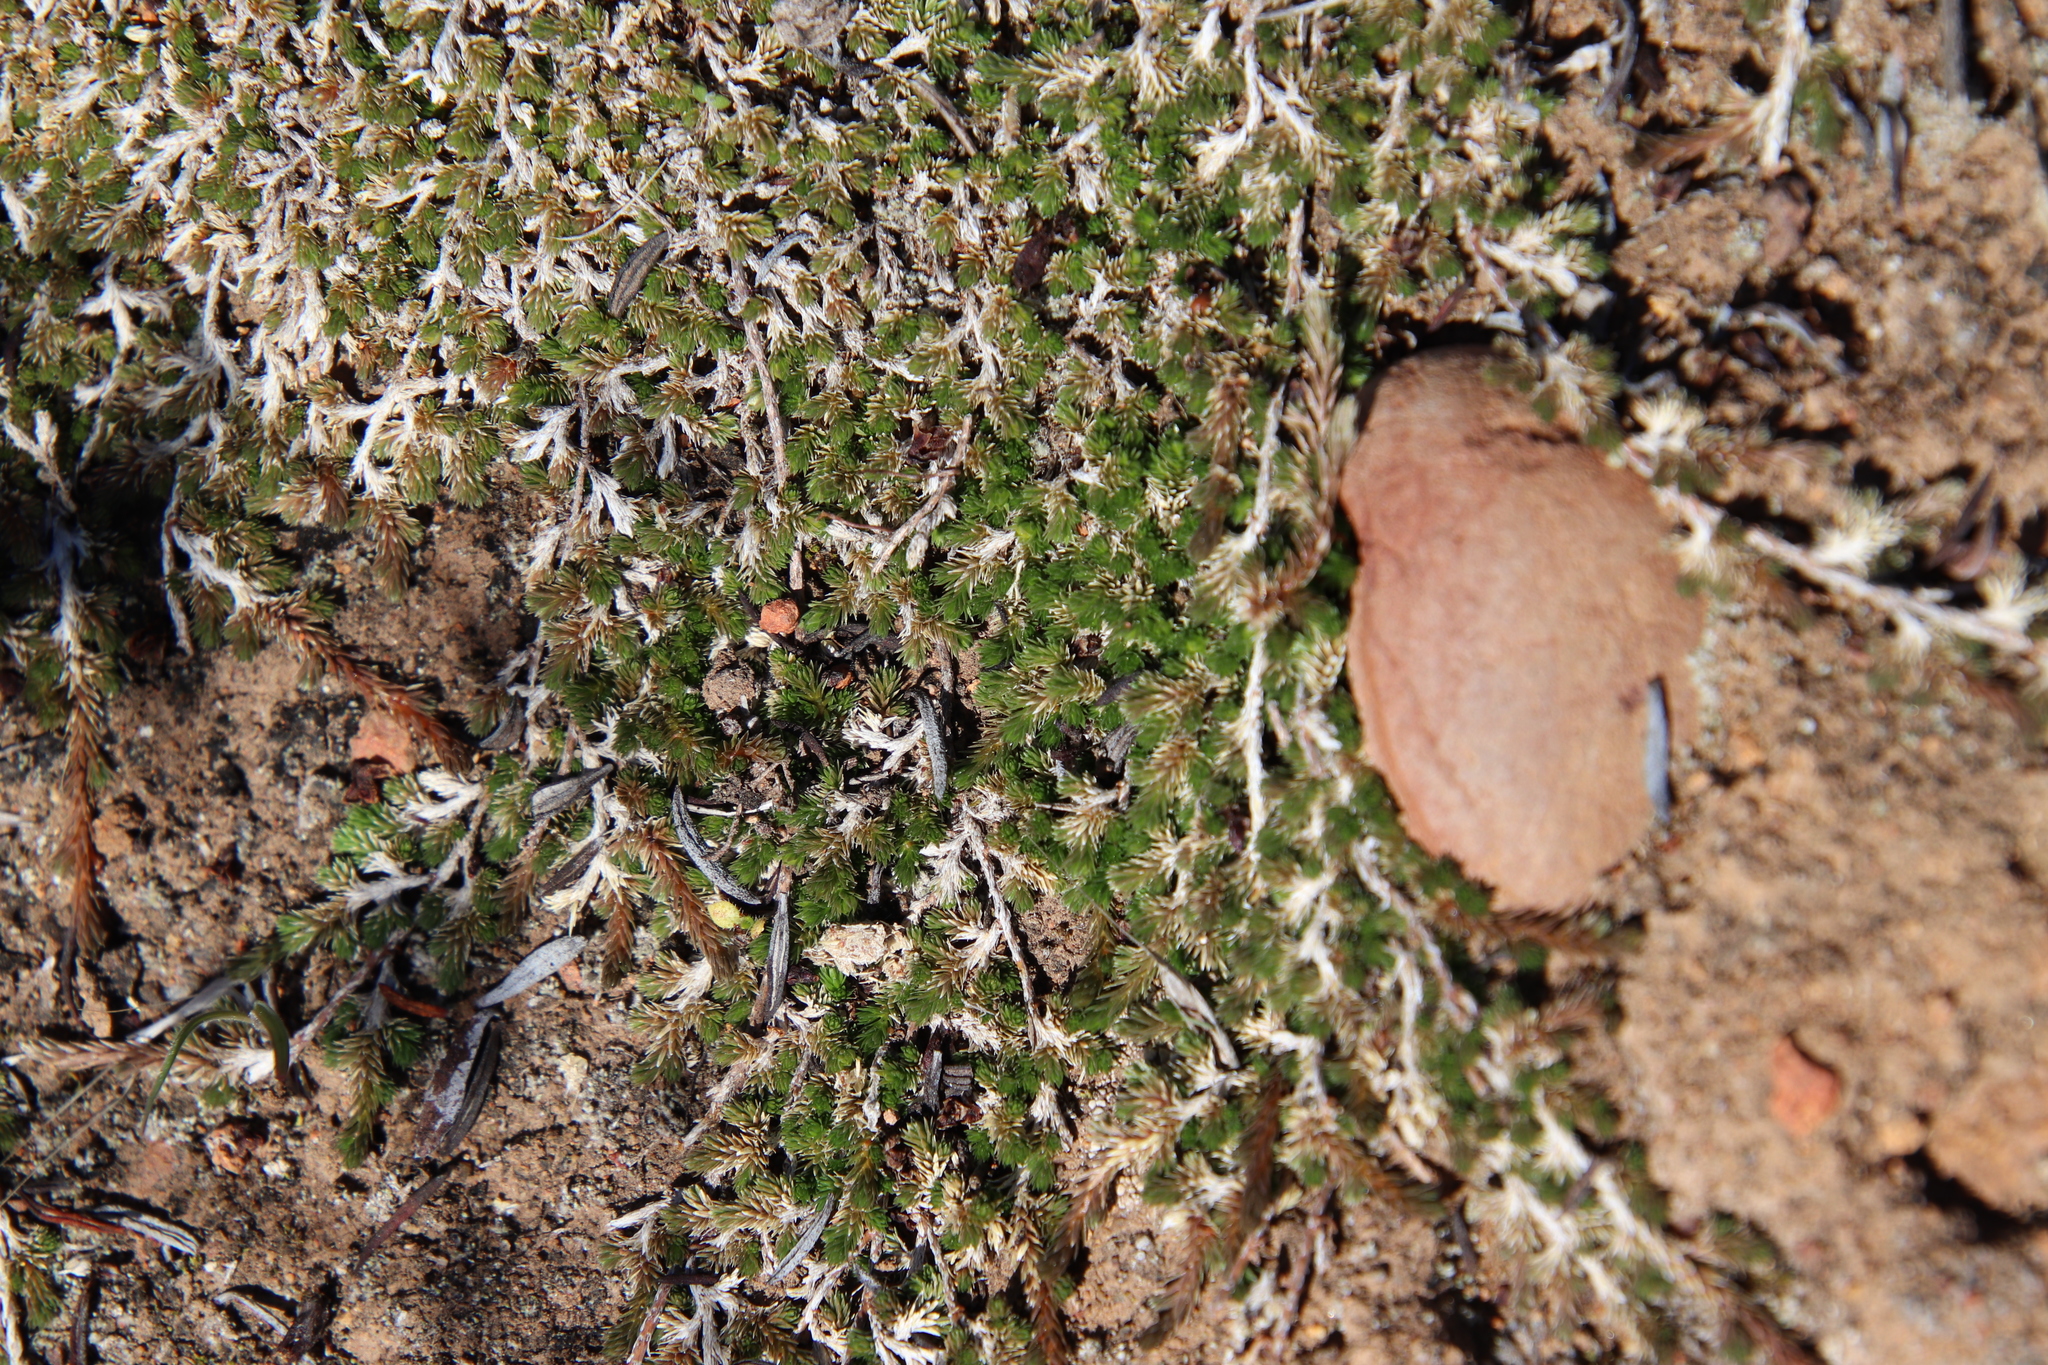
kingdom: Plantae
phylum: Tracheophyta
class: Lycopodiopsida
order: Selaginellales
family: Selaginellaceae
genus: Selaginella
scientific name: Selaginella cinerascens
